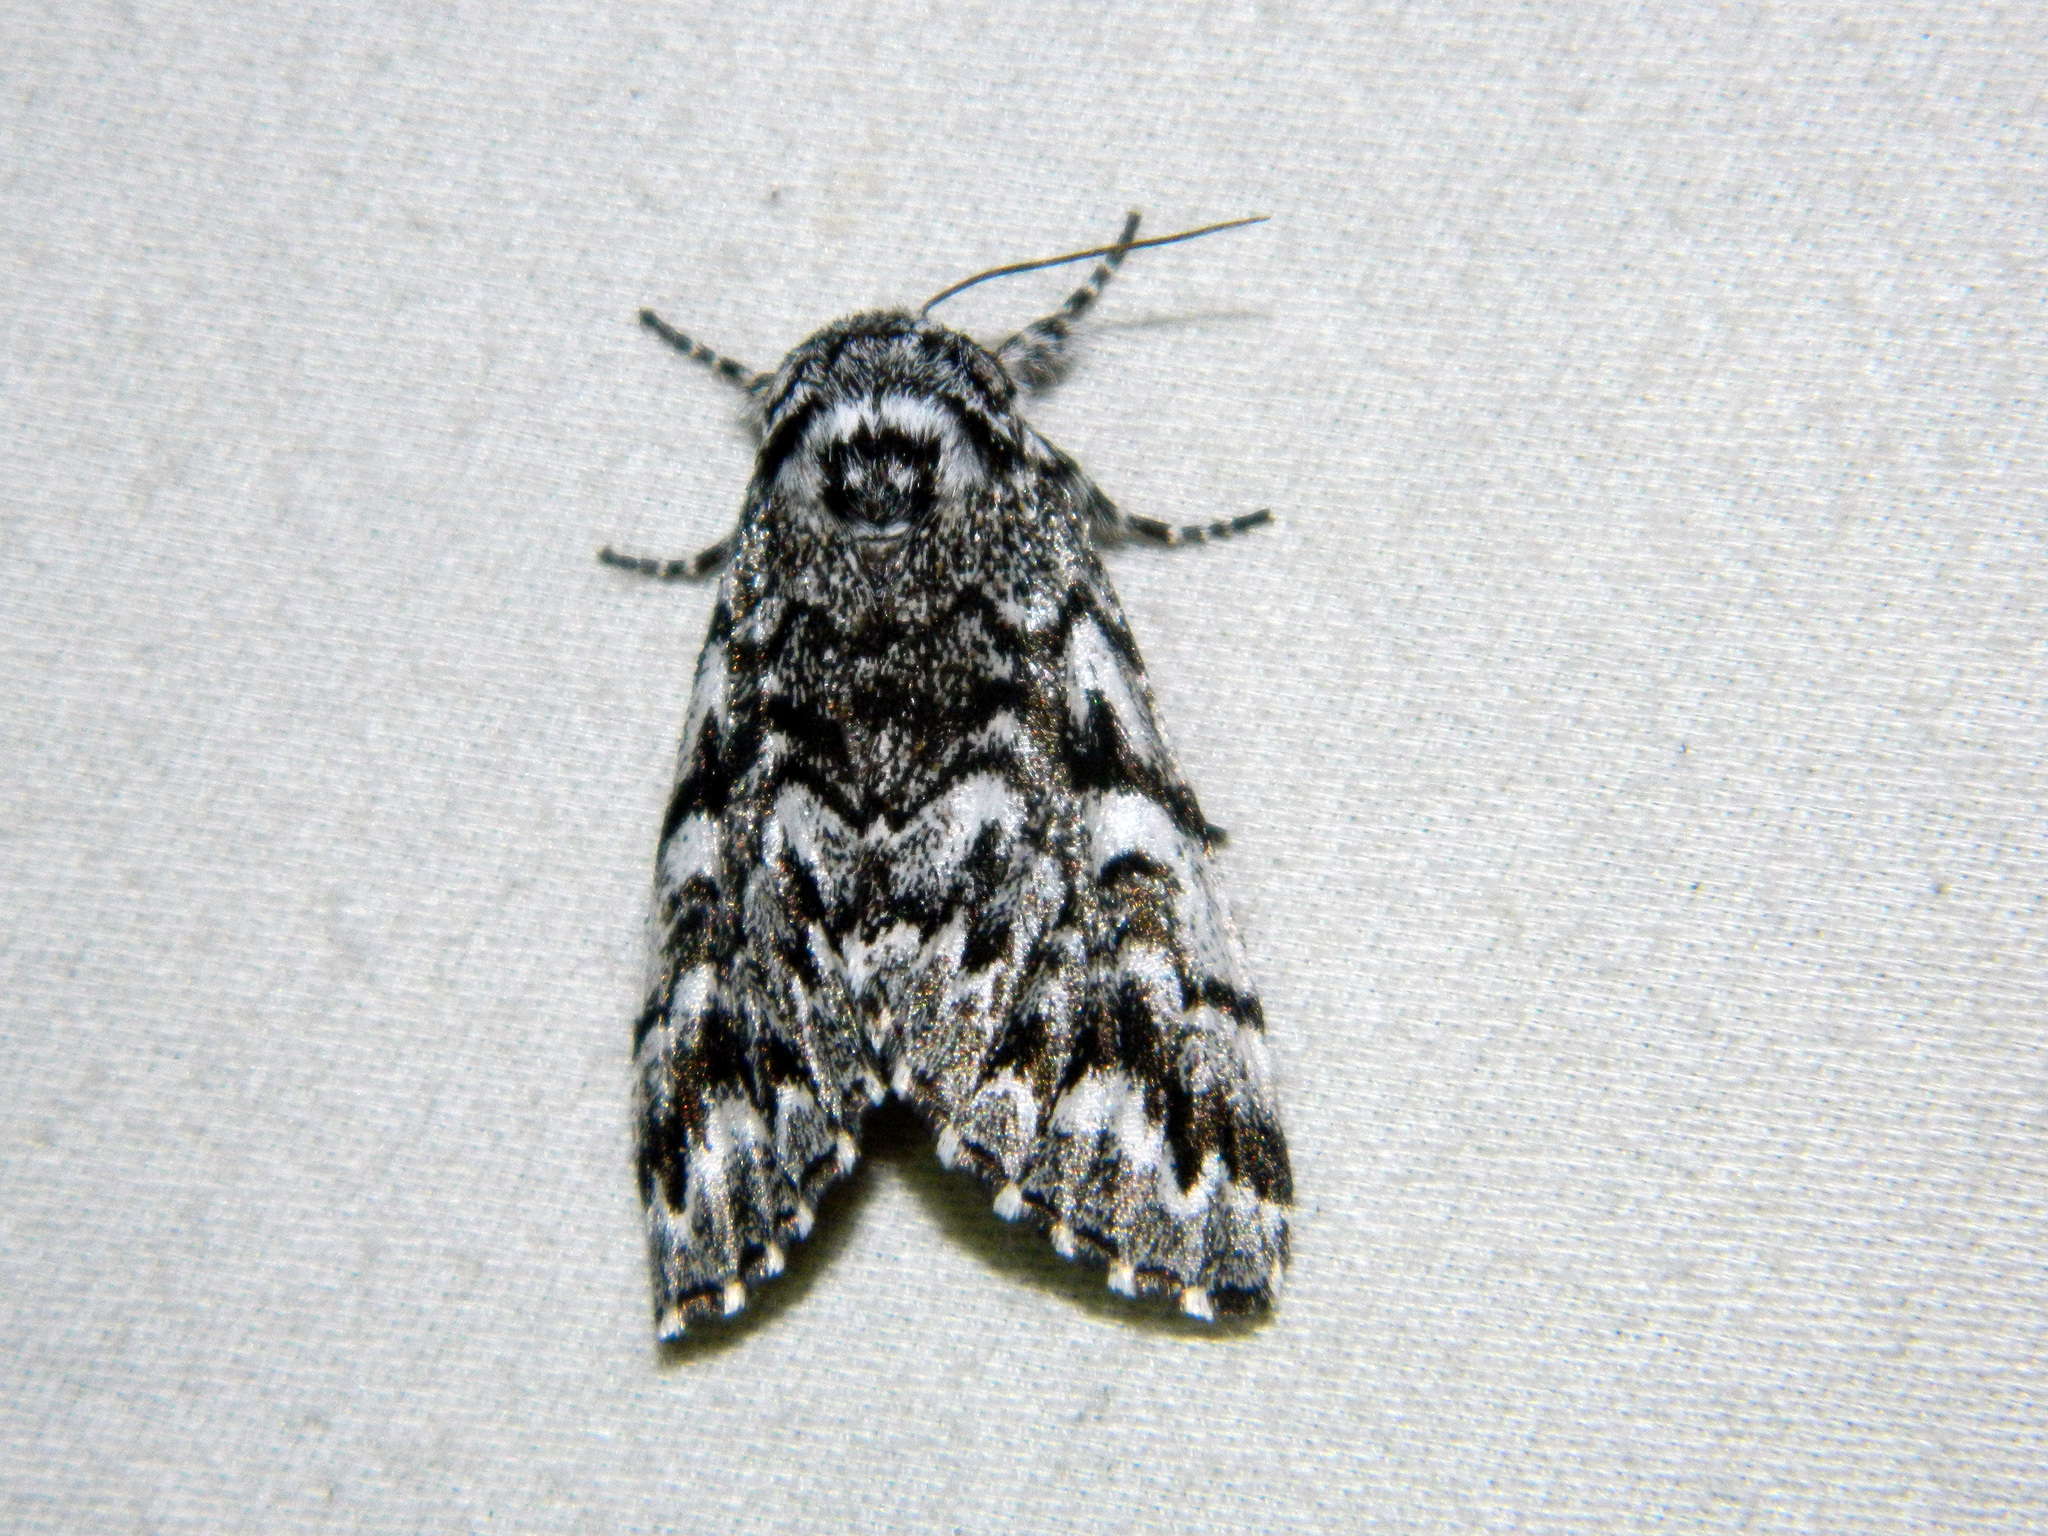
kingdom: Animalia
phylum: Arthropoda
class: Insecta
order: Lepidoptera
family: Noctuidae
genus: Panthea
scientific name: Panthea acronyctoides
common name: Black zigzag moth
